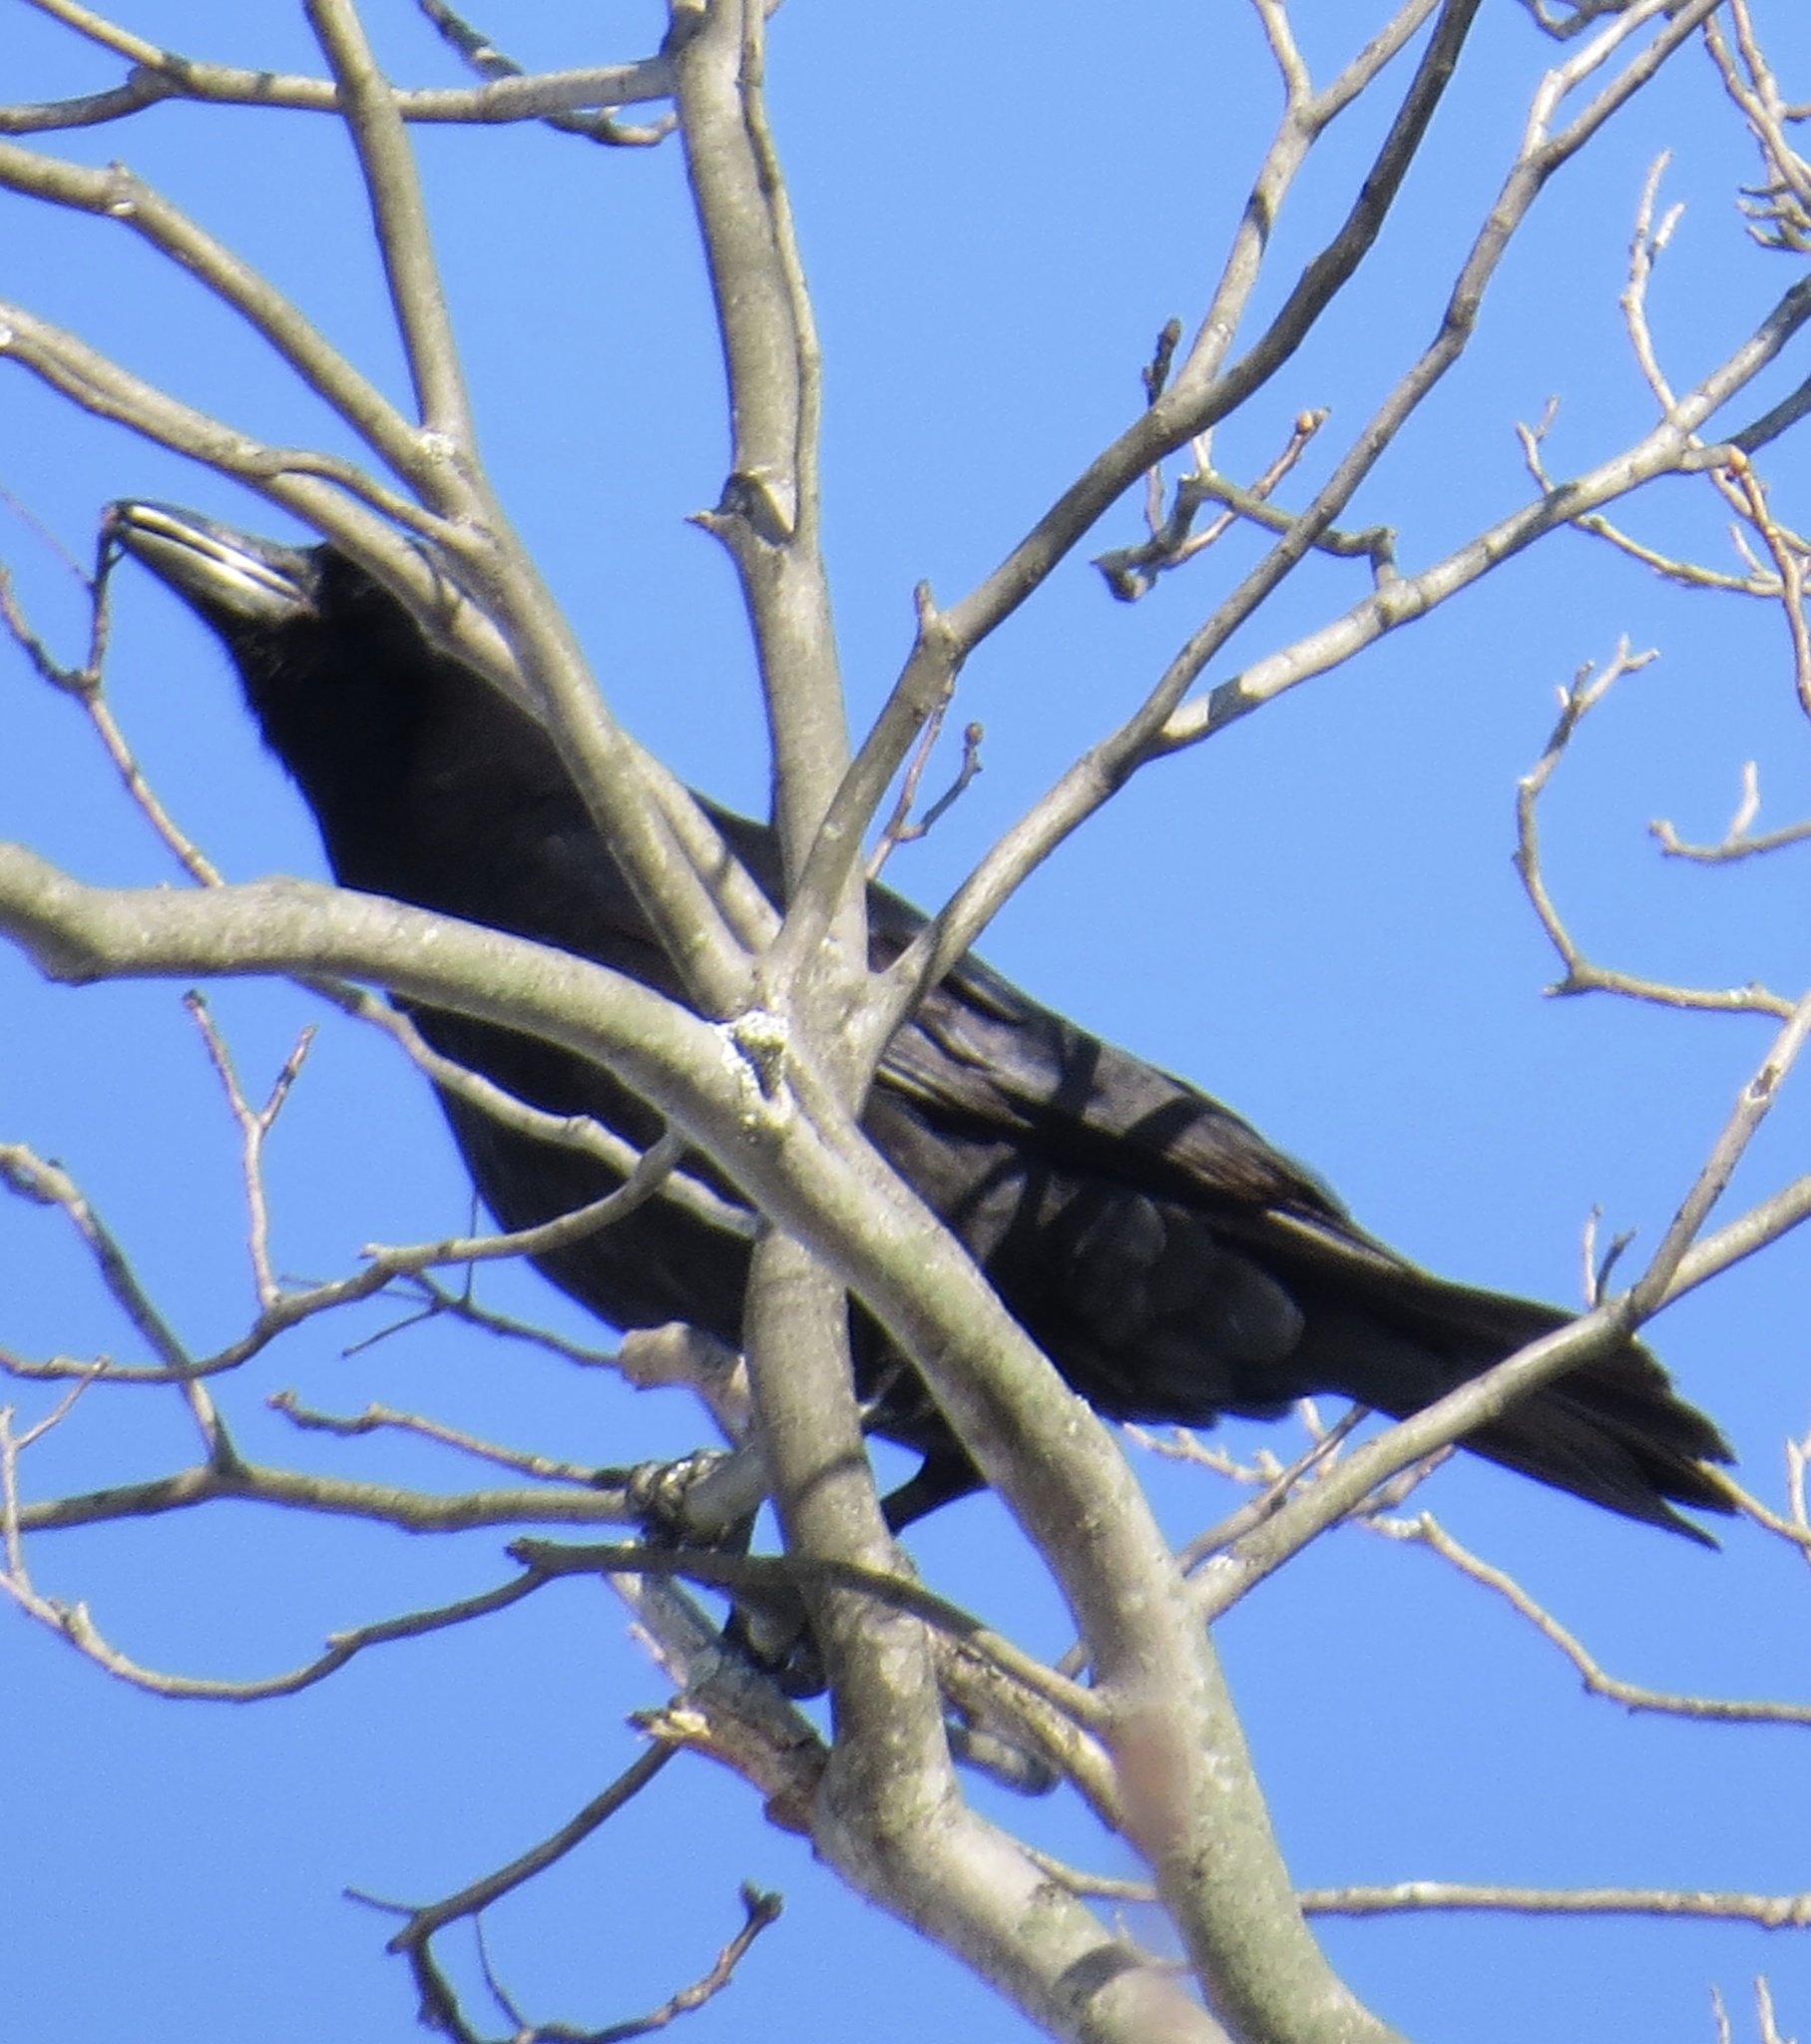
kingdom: Animalia
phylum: Chordata
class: Aves
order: Passeriformes
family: Corvidae
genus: Corvus
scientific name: Corvus brachyrhynchos
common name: American crow
